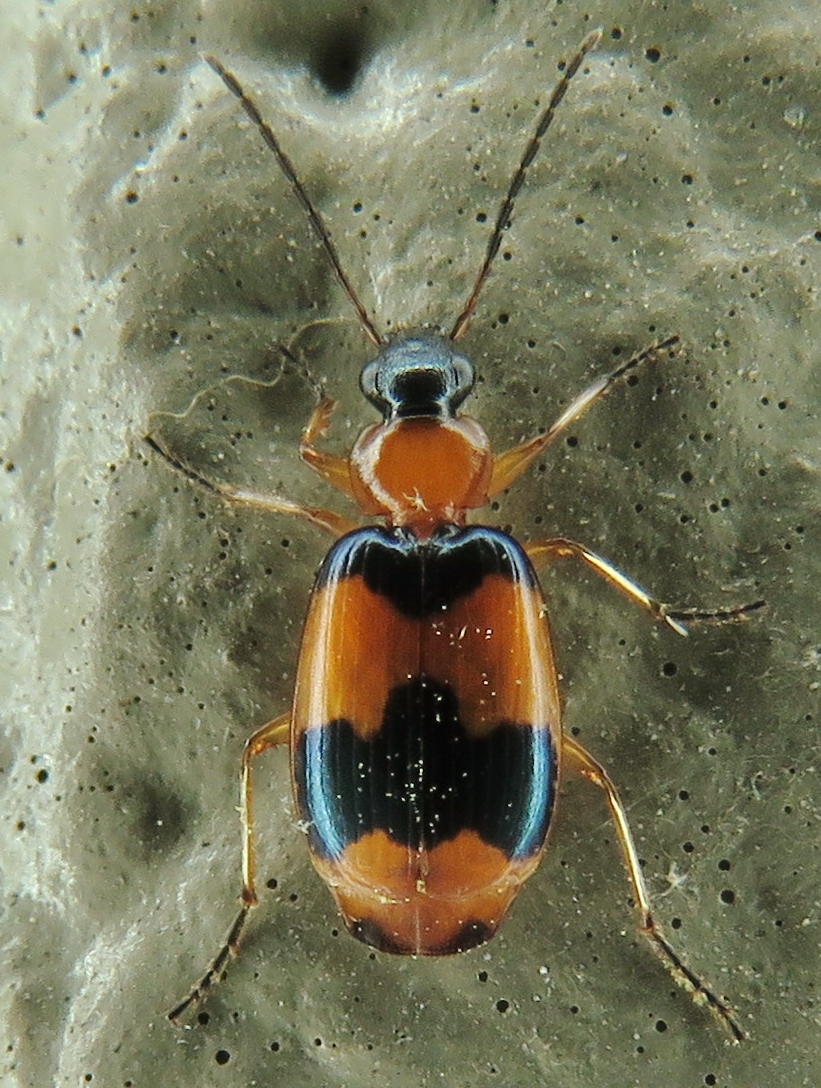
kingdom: Animalia
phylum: Arthropoda
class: Insecta
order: Coleoptera
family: Carabidae
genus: Lebia
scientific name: Lebia pulchella
